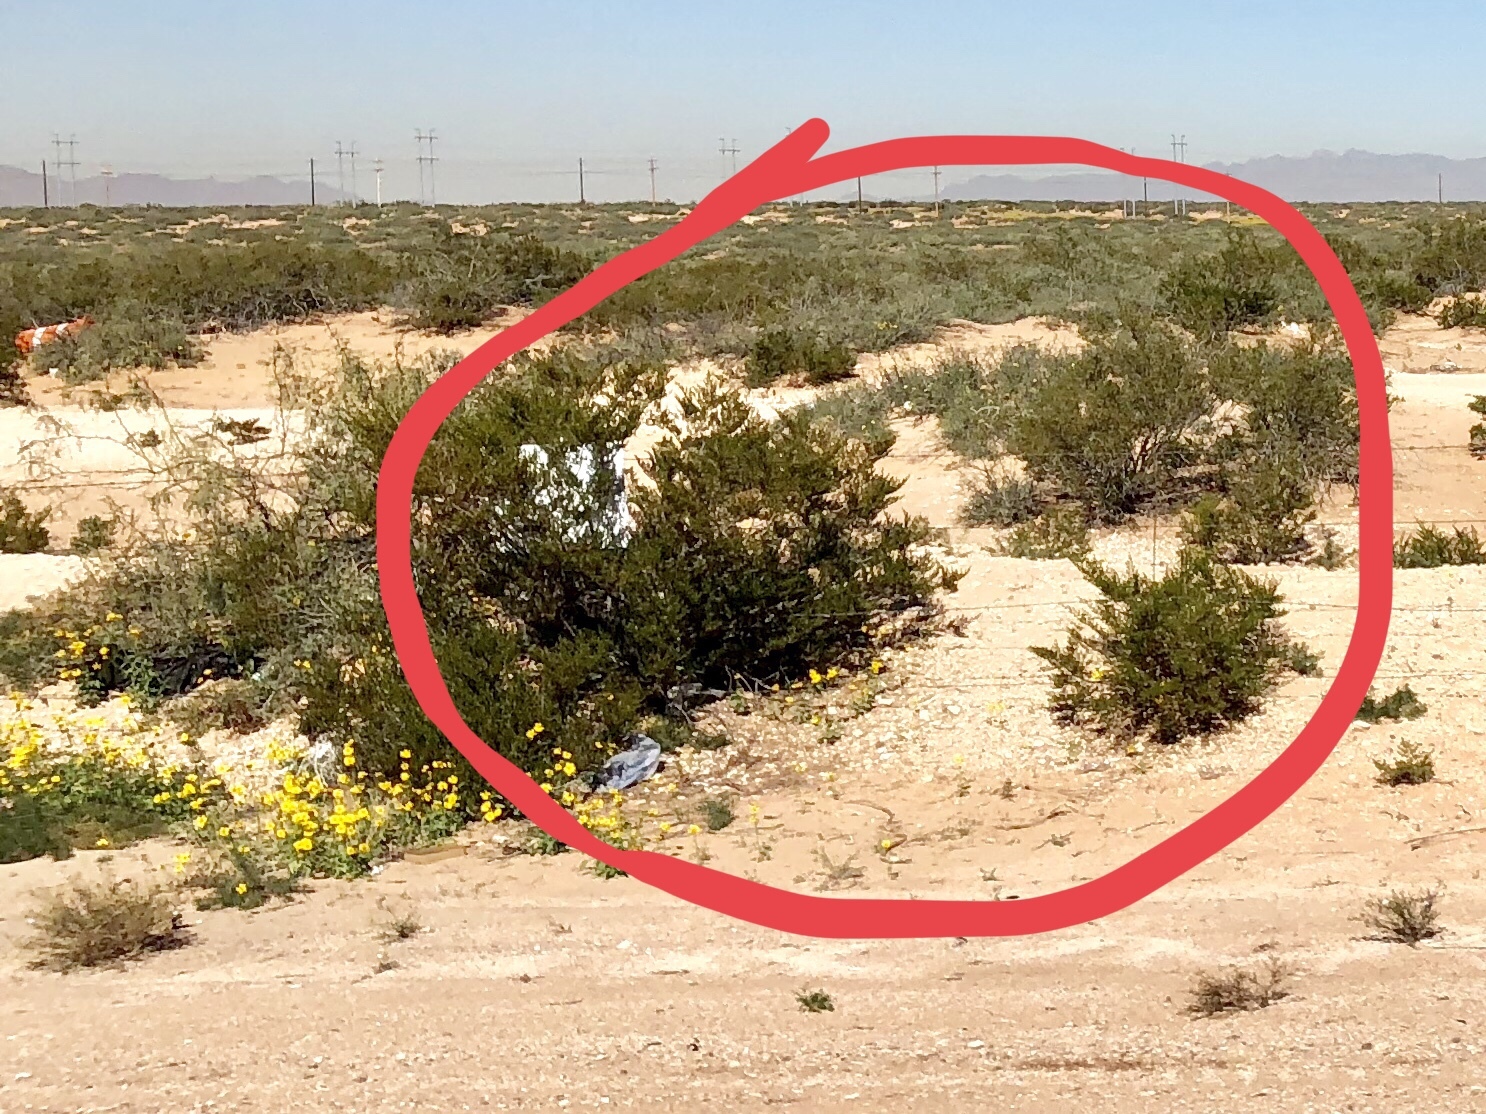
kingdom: Plantae
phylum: Tracheophyta
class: Magnoliopsida
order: Zygophyllales
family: Zygophyllaceae
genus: Larrea
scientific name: Larrea tridentata
